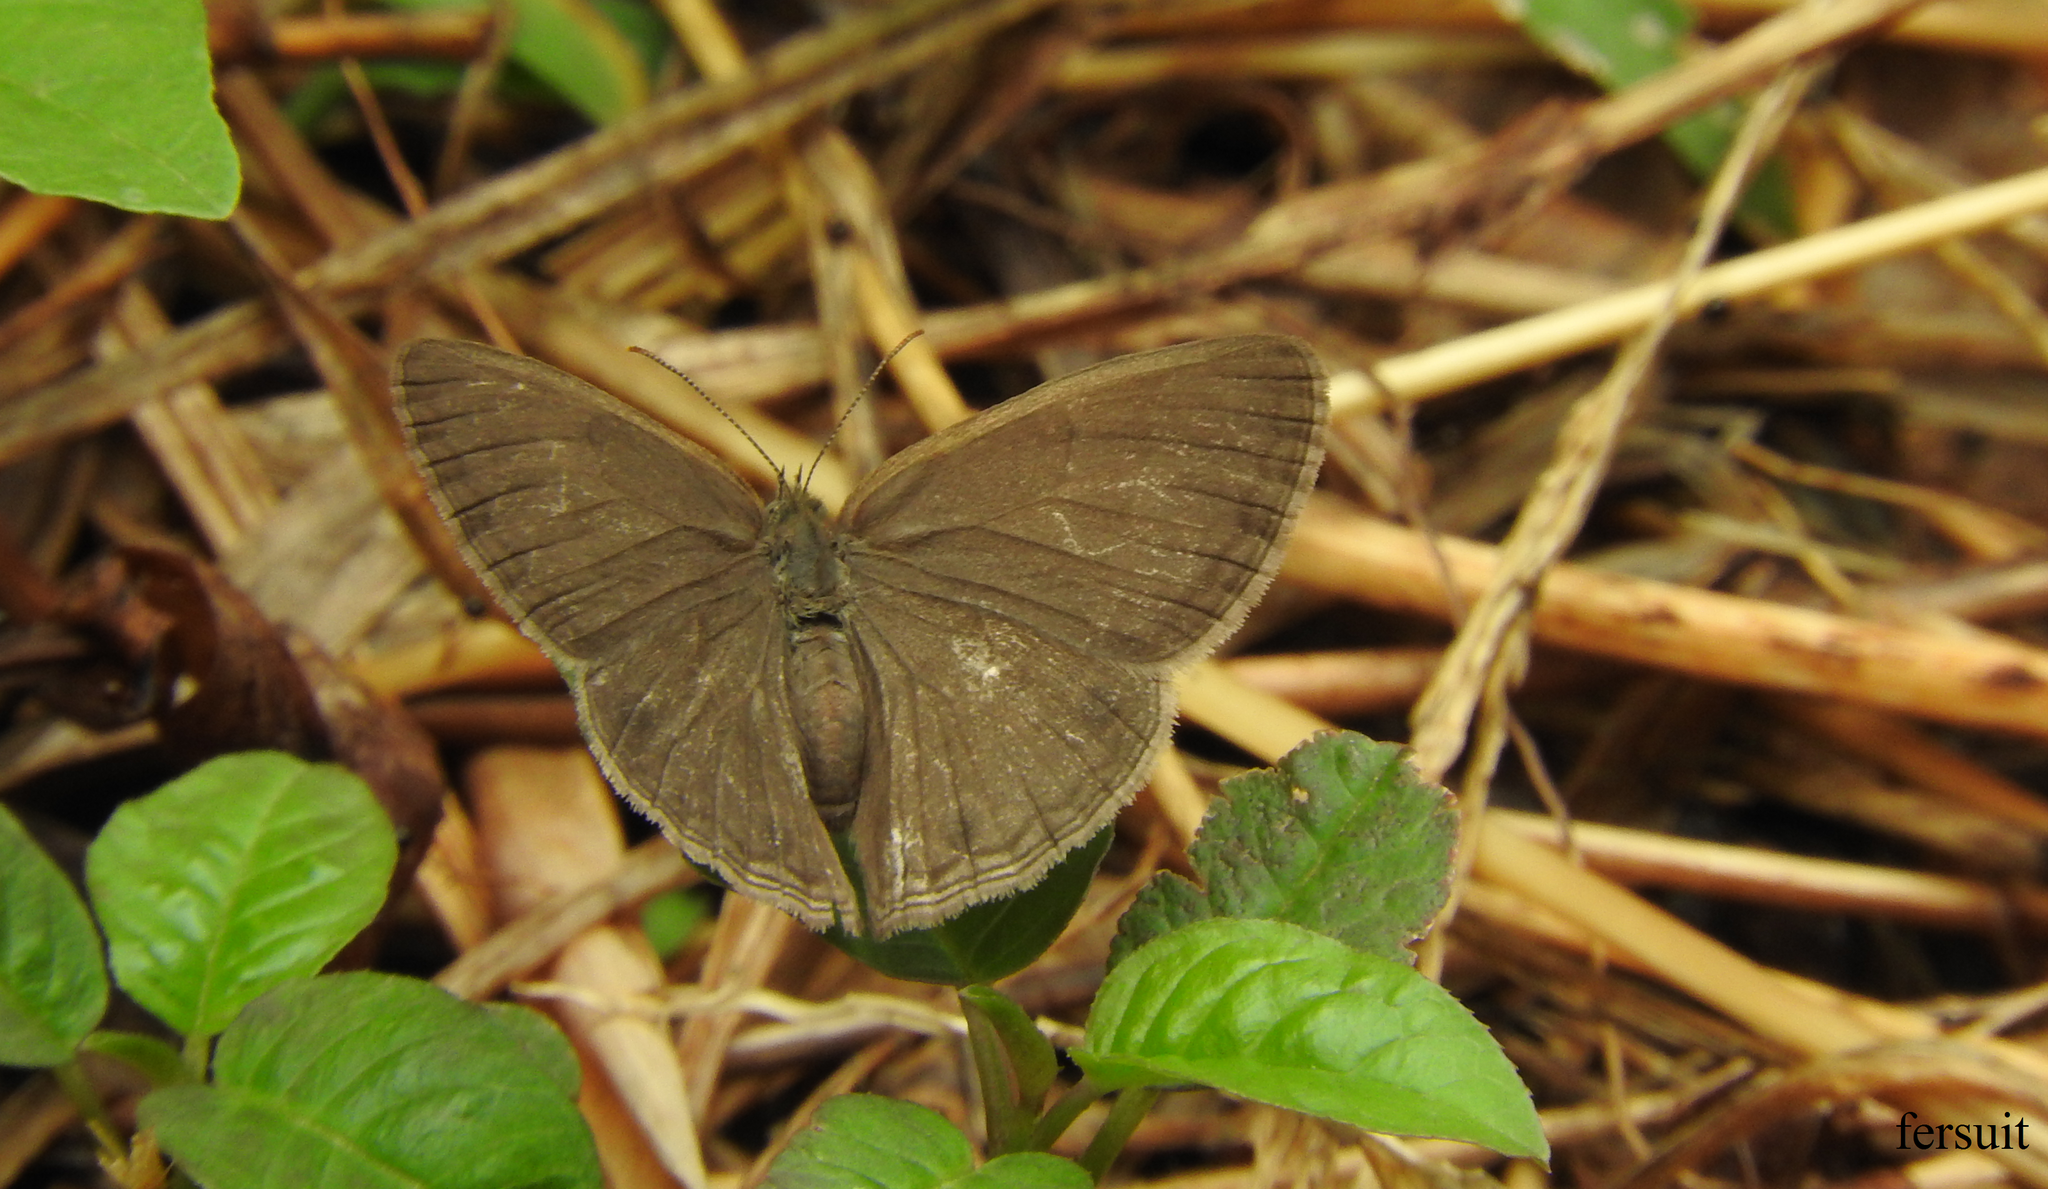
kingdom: Animalia
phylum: Arthropoda
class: Insecta
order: Lepidoptera
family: Nymphalidae
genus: Euptychiina
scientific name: Euptychiina
